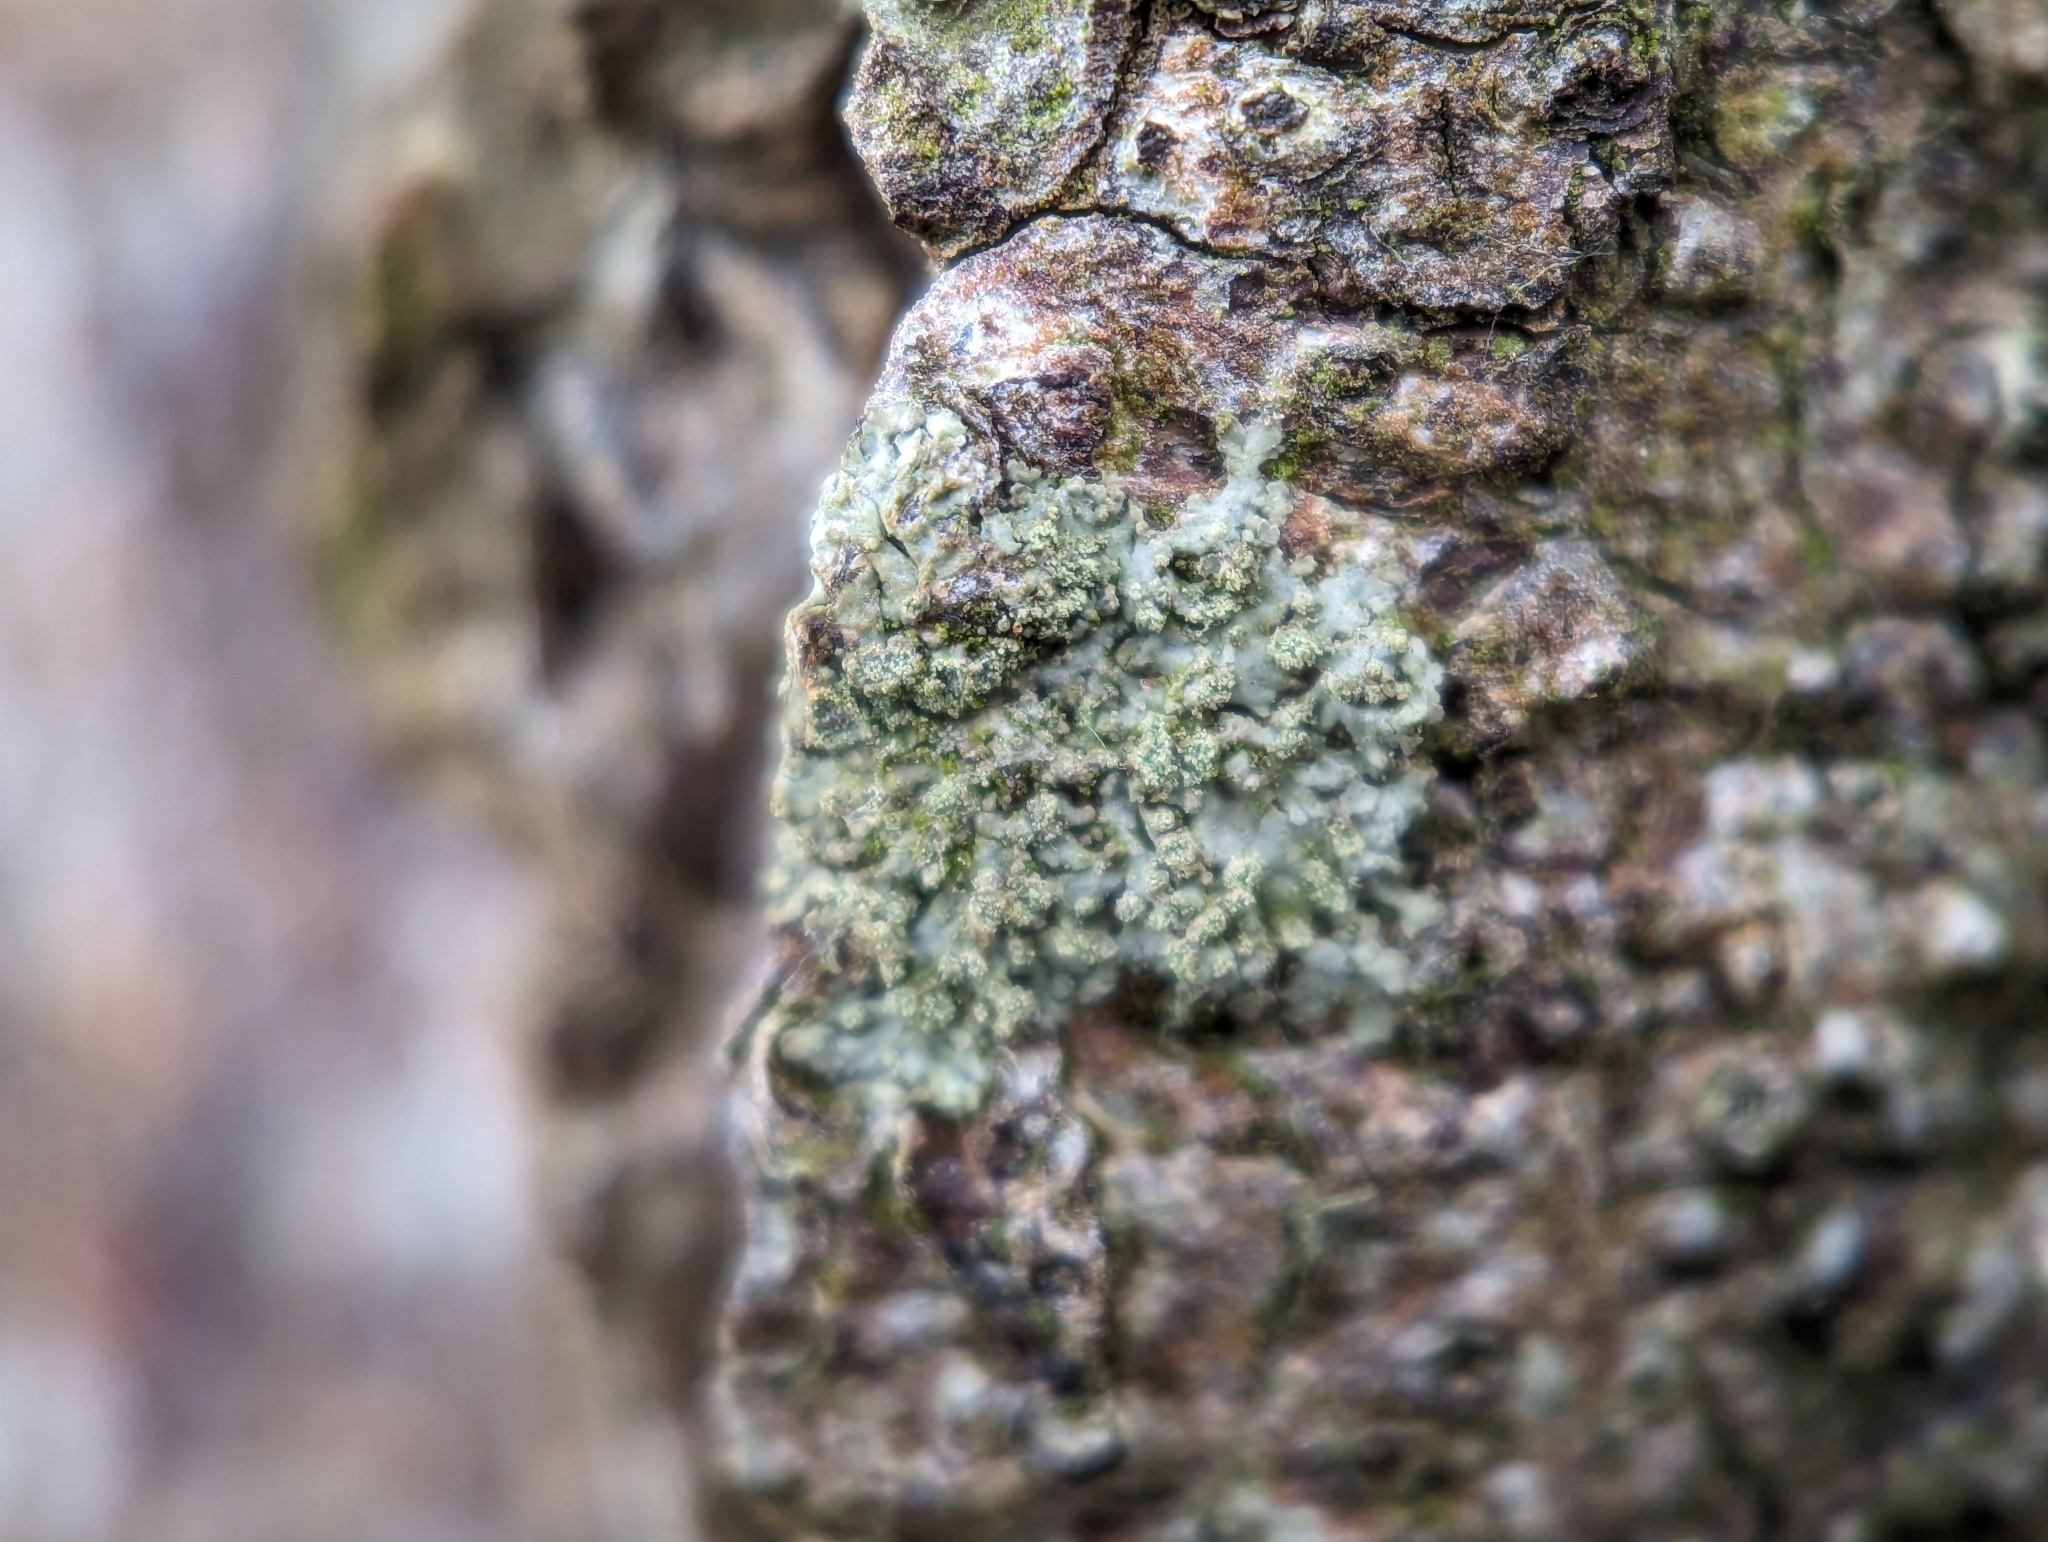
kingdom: Fungi
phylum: Ascomycota
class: Lecanoromycetes
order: Caliciales
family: Physciaceae
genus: Hyperphyscia
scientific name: Hyperphyscia adglutinata
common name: Grainy shadow-crust lichen
